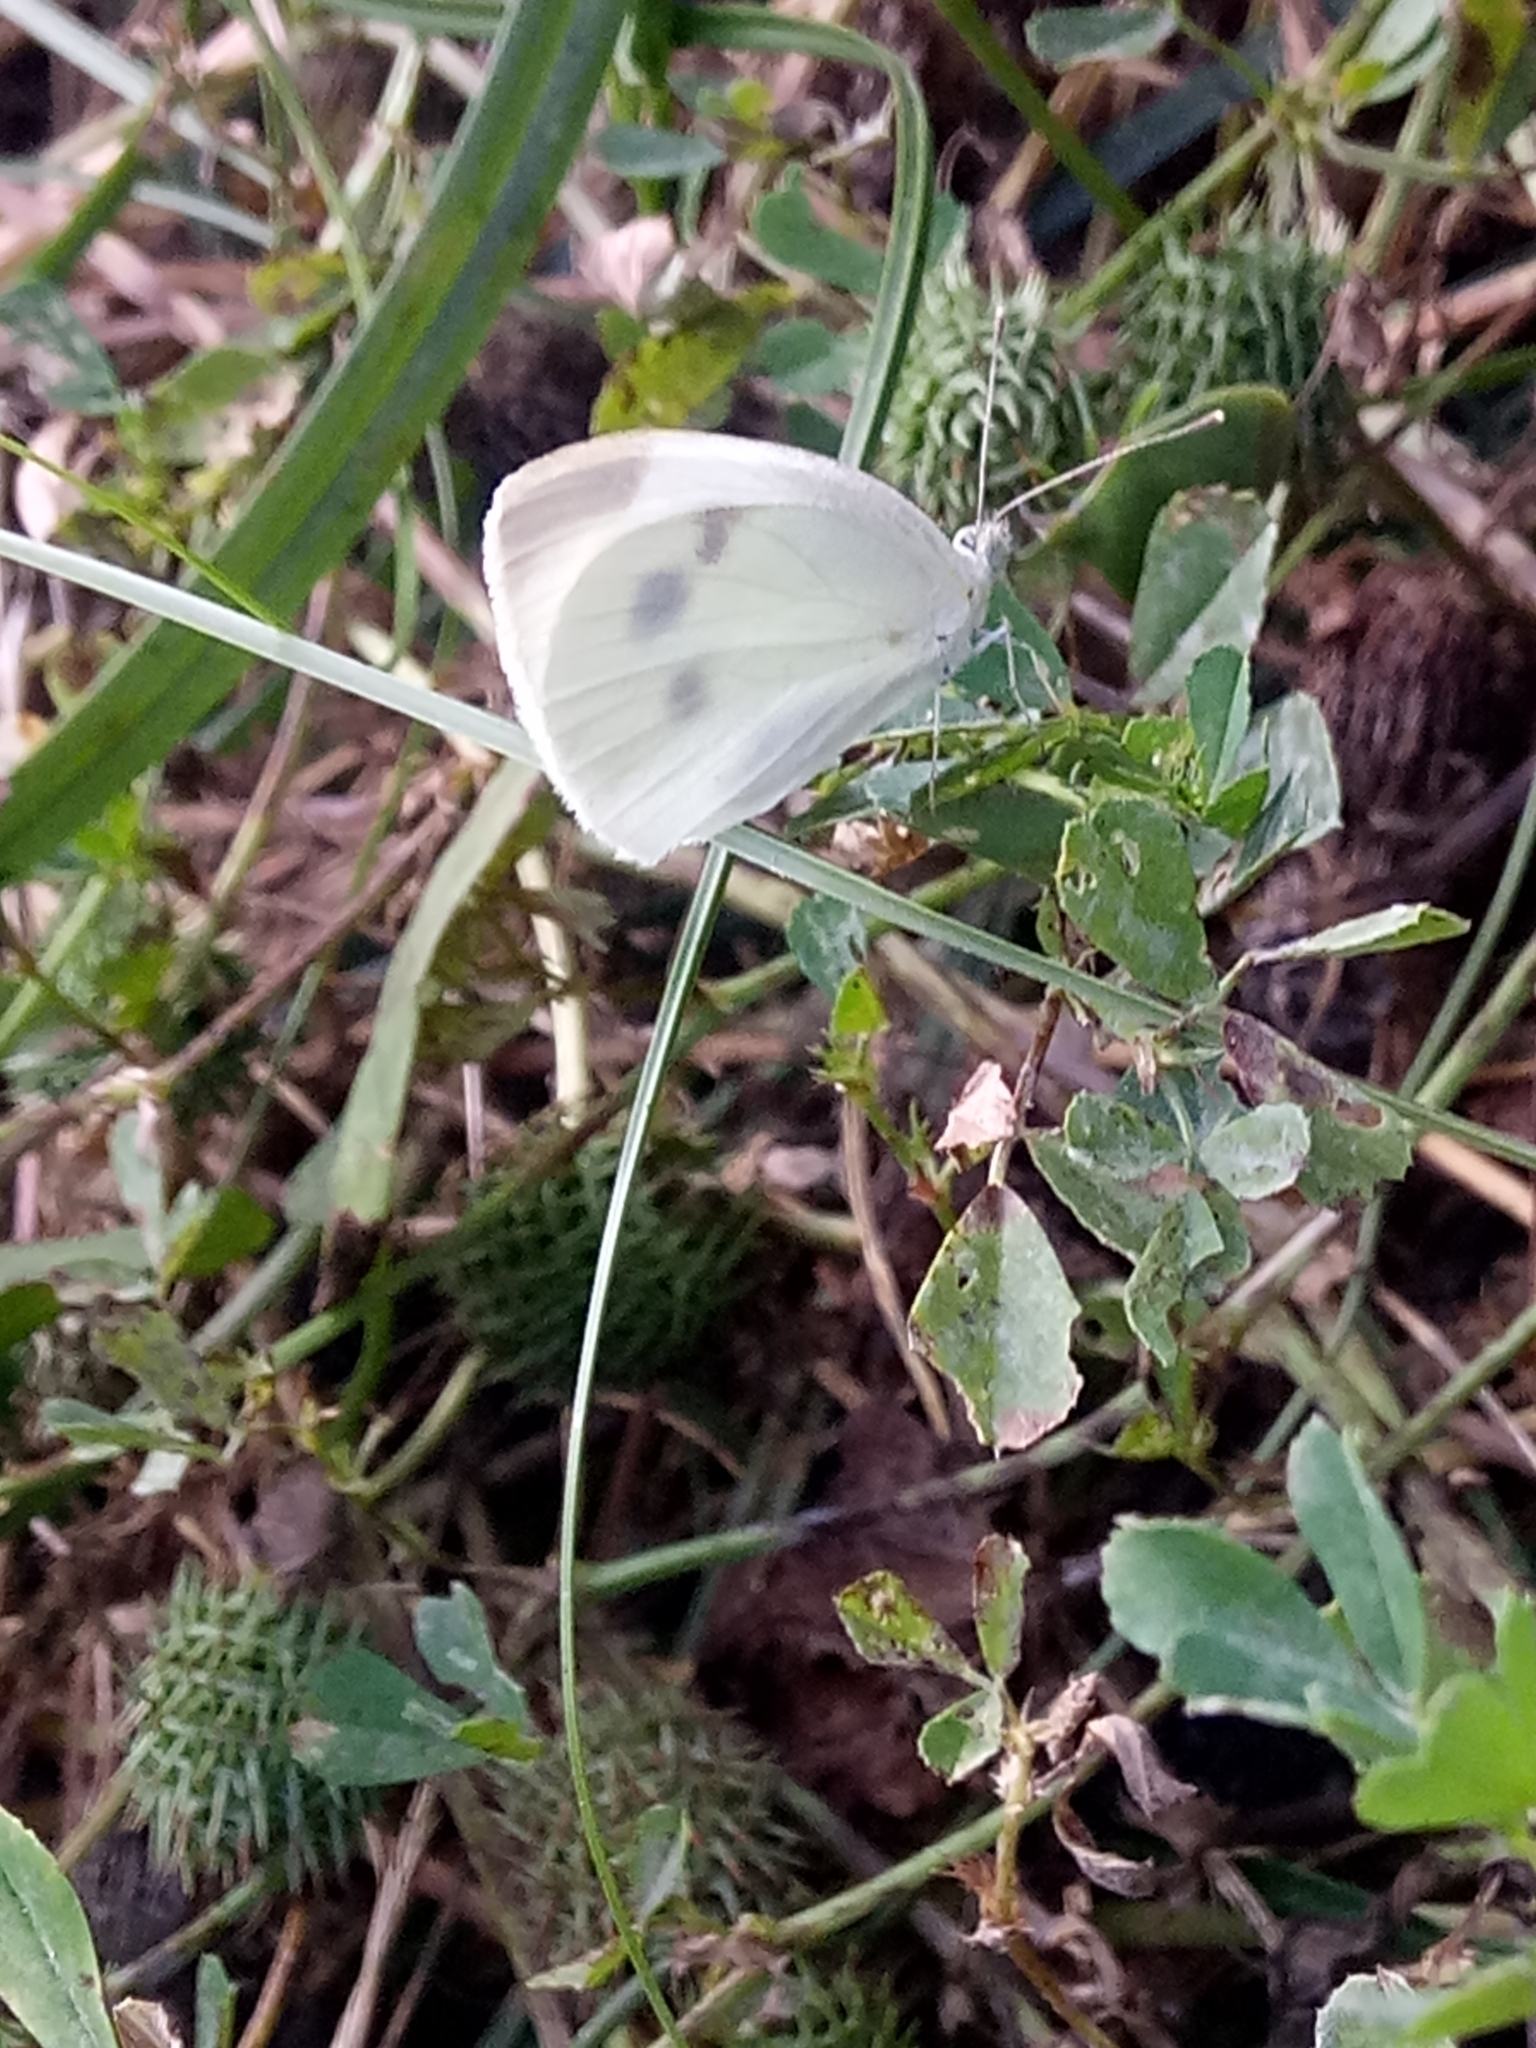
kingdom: Animalia
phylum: Arthropoda
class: Insecta
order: Lepidoptera
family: Pieridae
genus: Pieris
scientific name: Pieris rapae
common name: Small white
